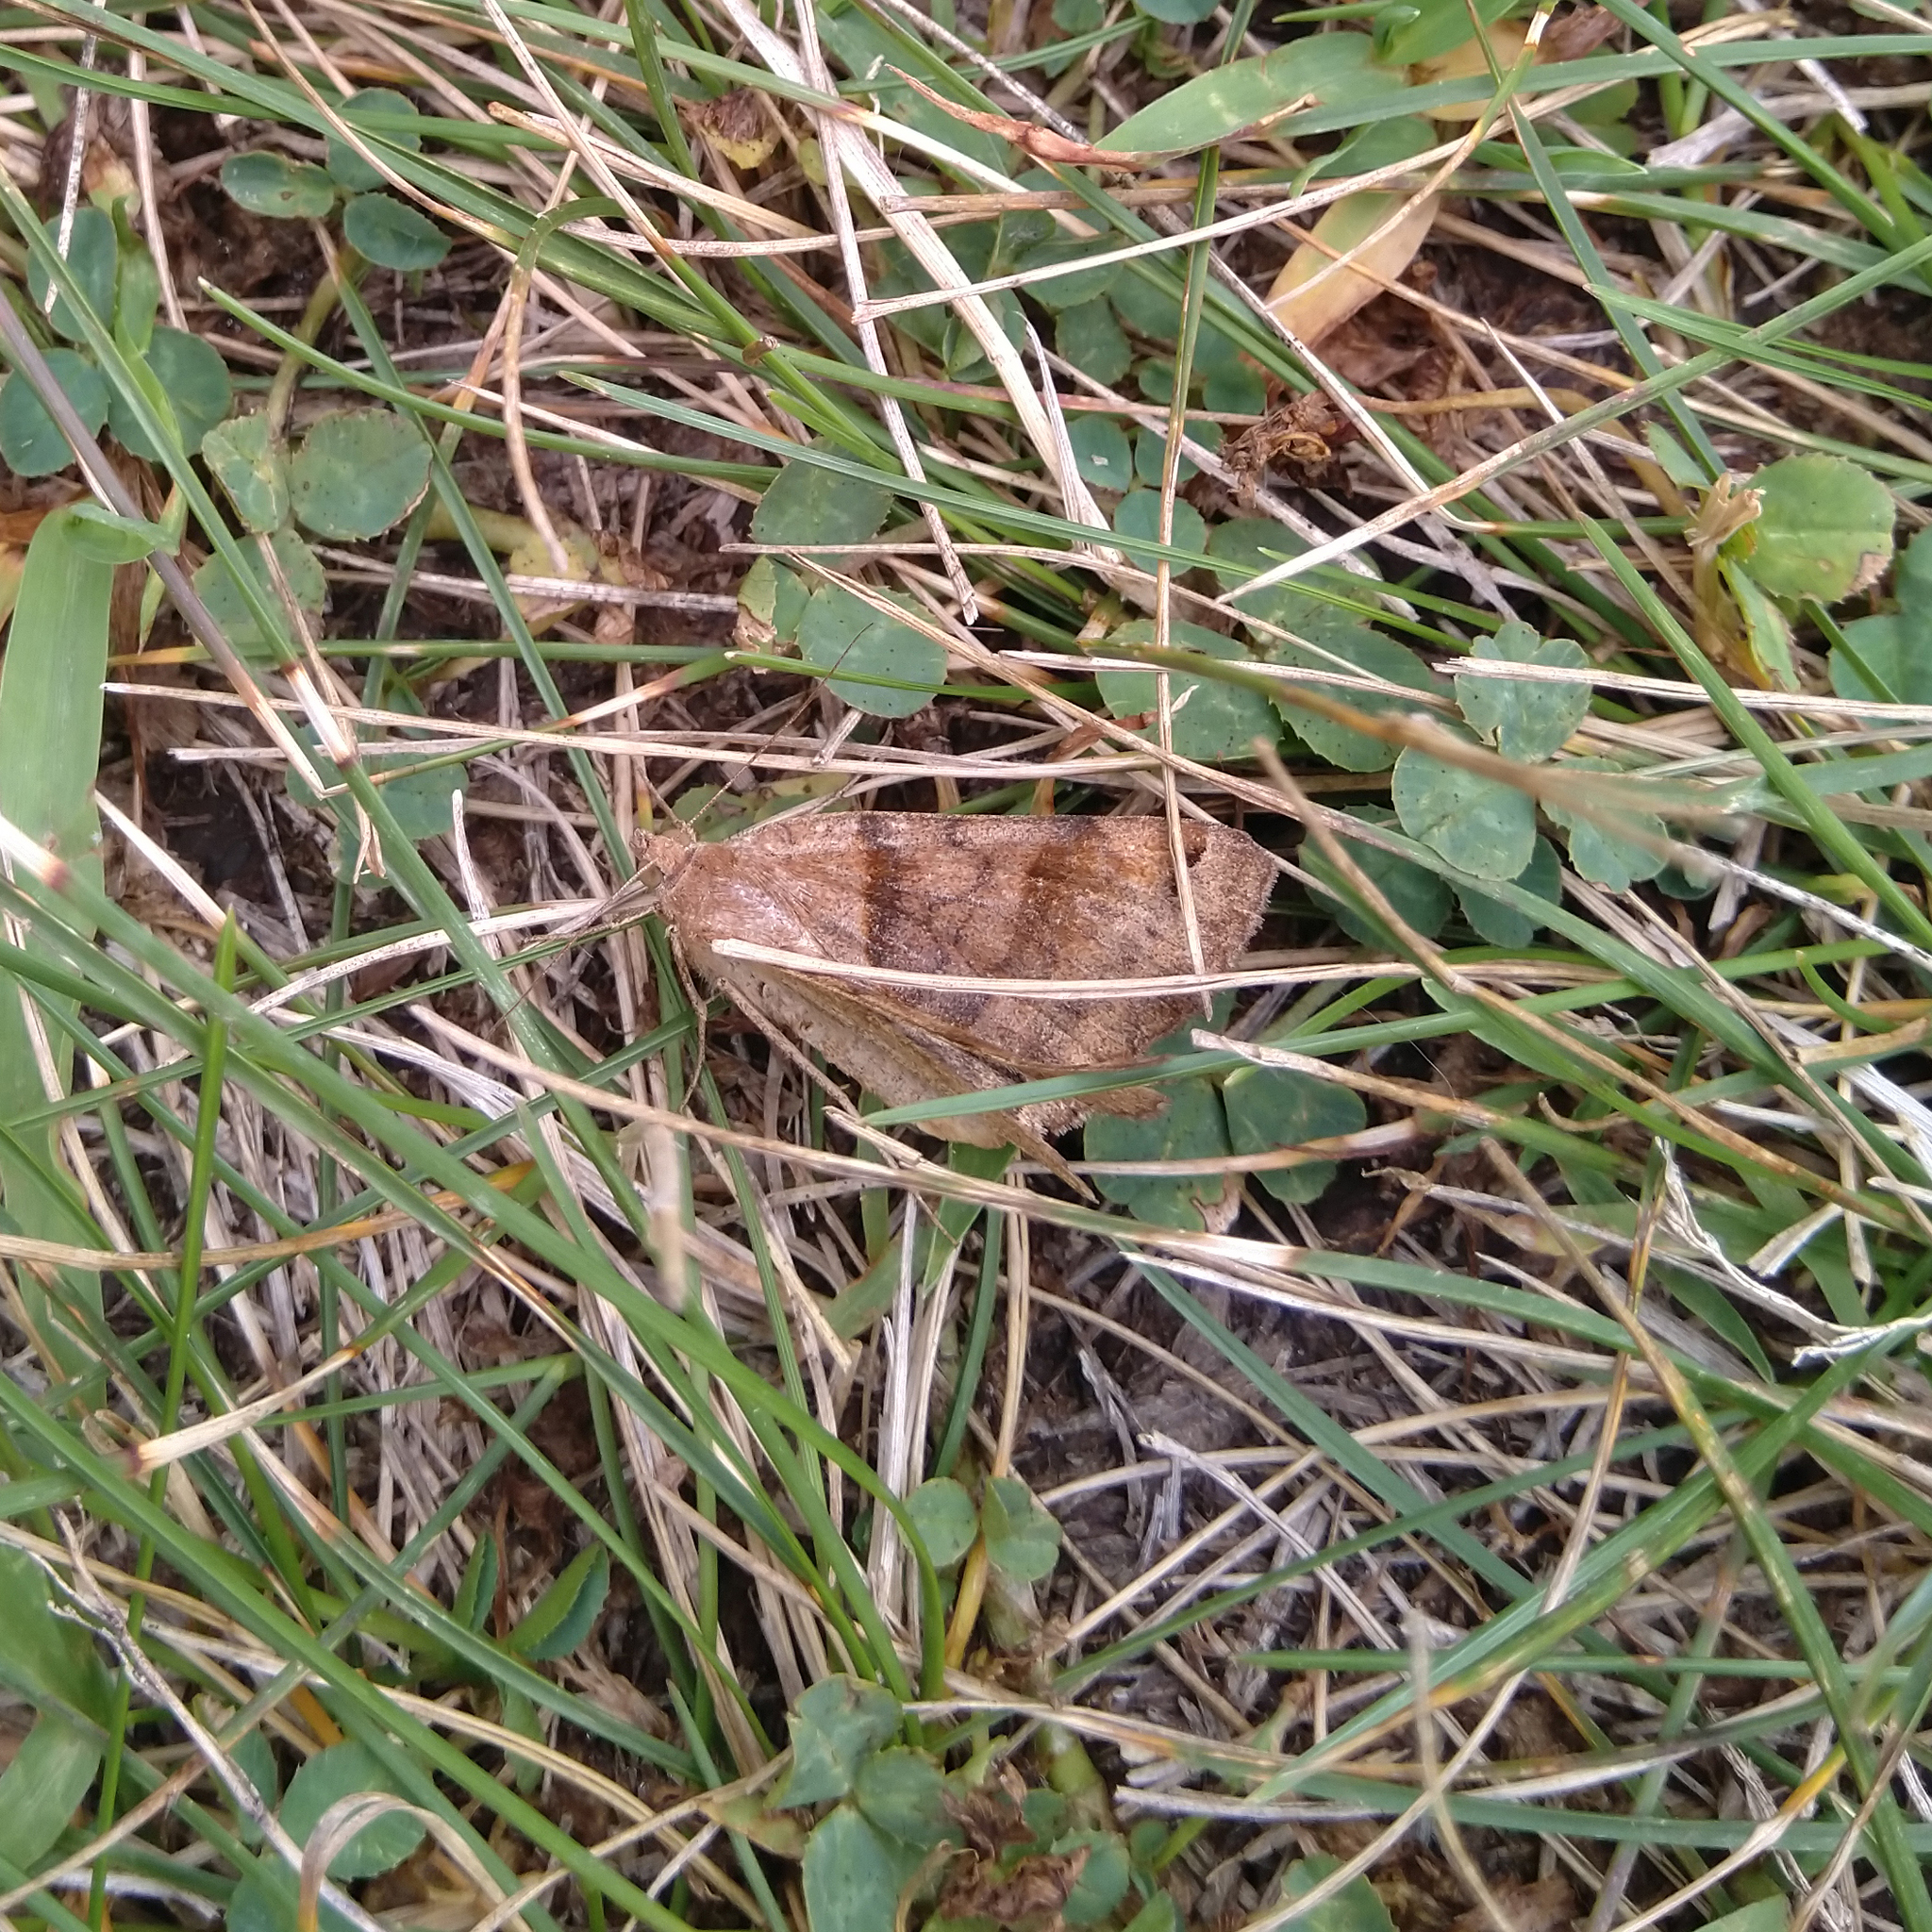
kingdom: Animalia
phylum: Arthropoda
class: Insecta
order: Lepidoptera
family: Erebidae
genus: Caenurgina
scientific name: Caenurgina crassiuscula
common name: Double-barred
